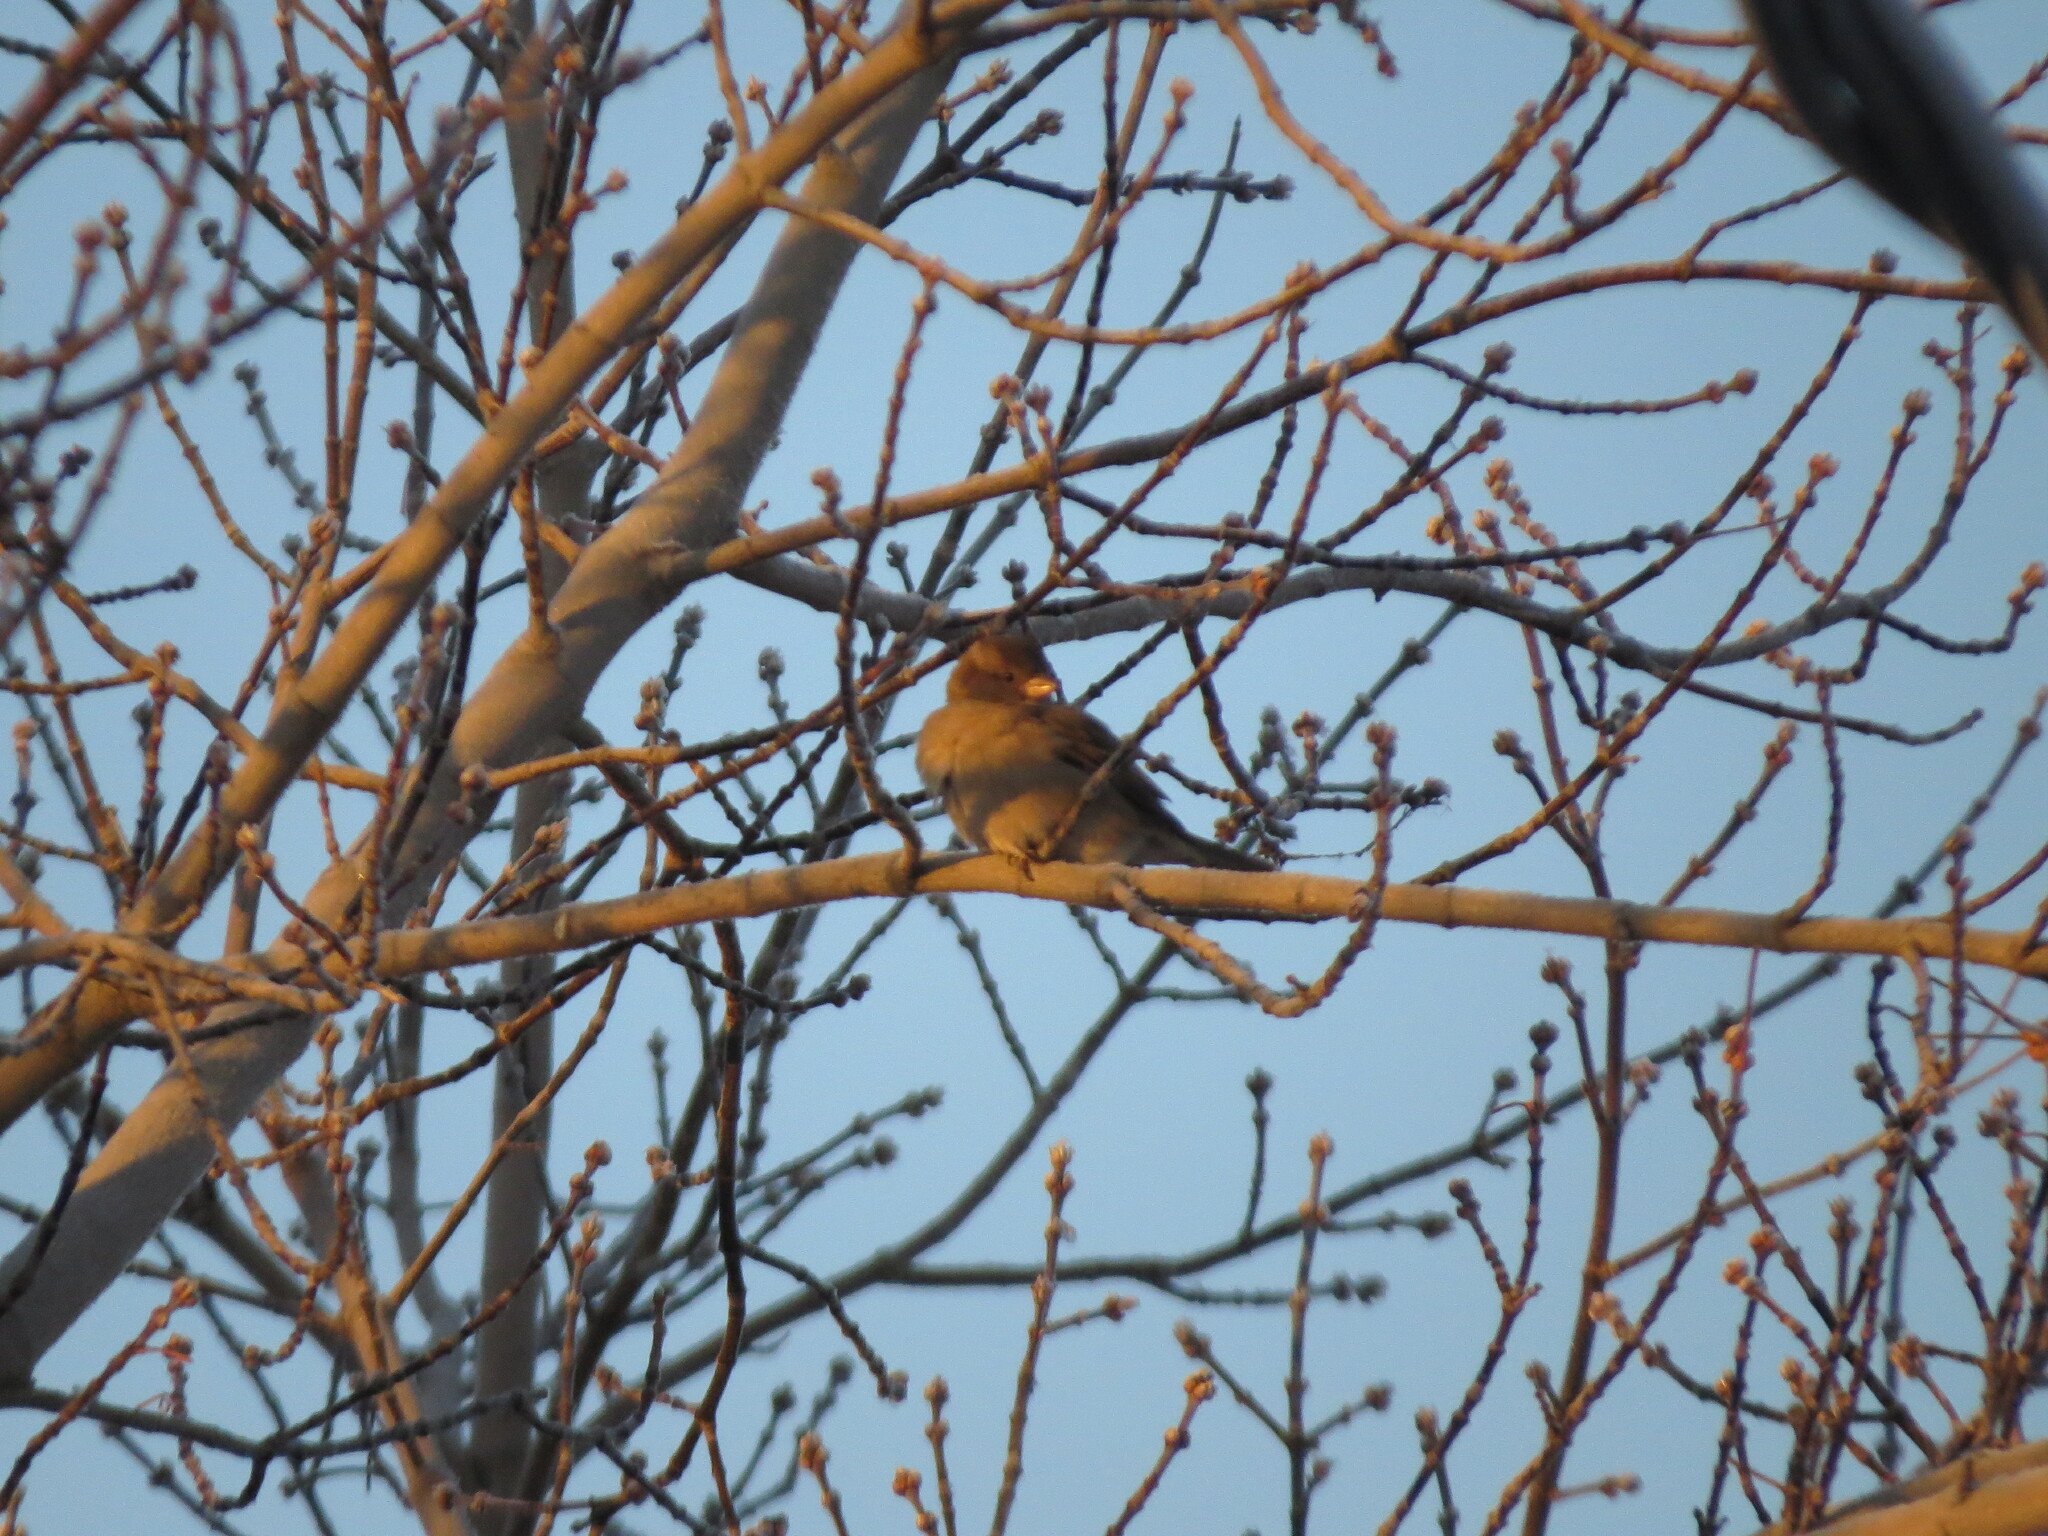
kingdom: Animalia
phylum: Chordata
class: Aves
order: Passeriformes
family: Passeridae
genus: Passer
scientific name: Passer domesticus
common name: House sparrow
